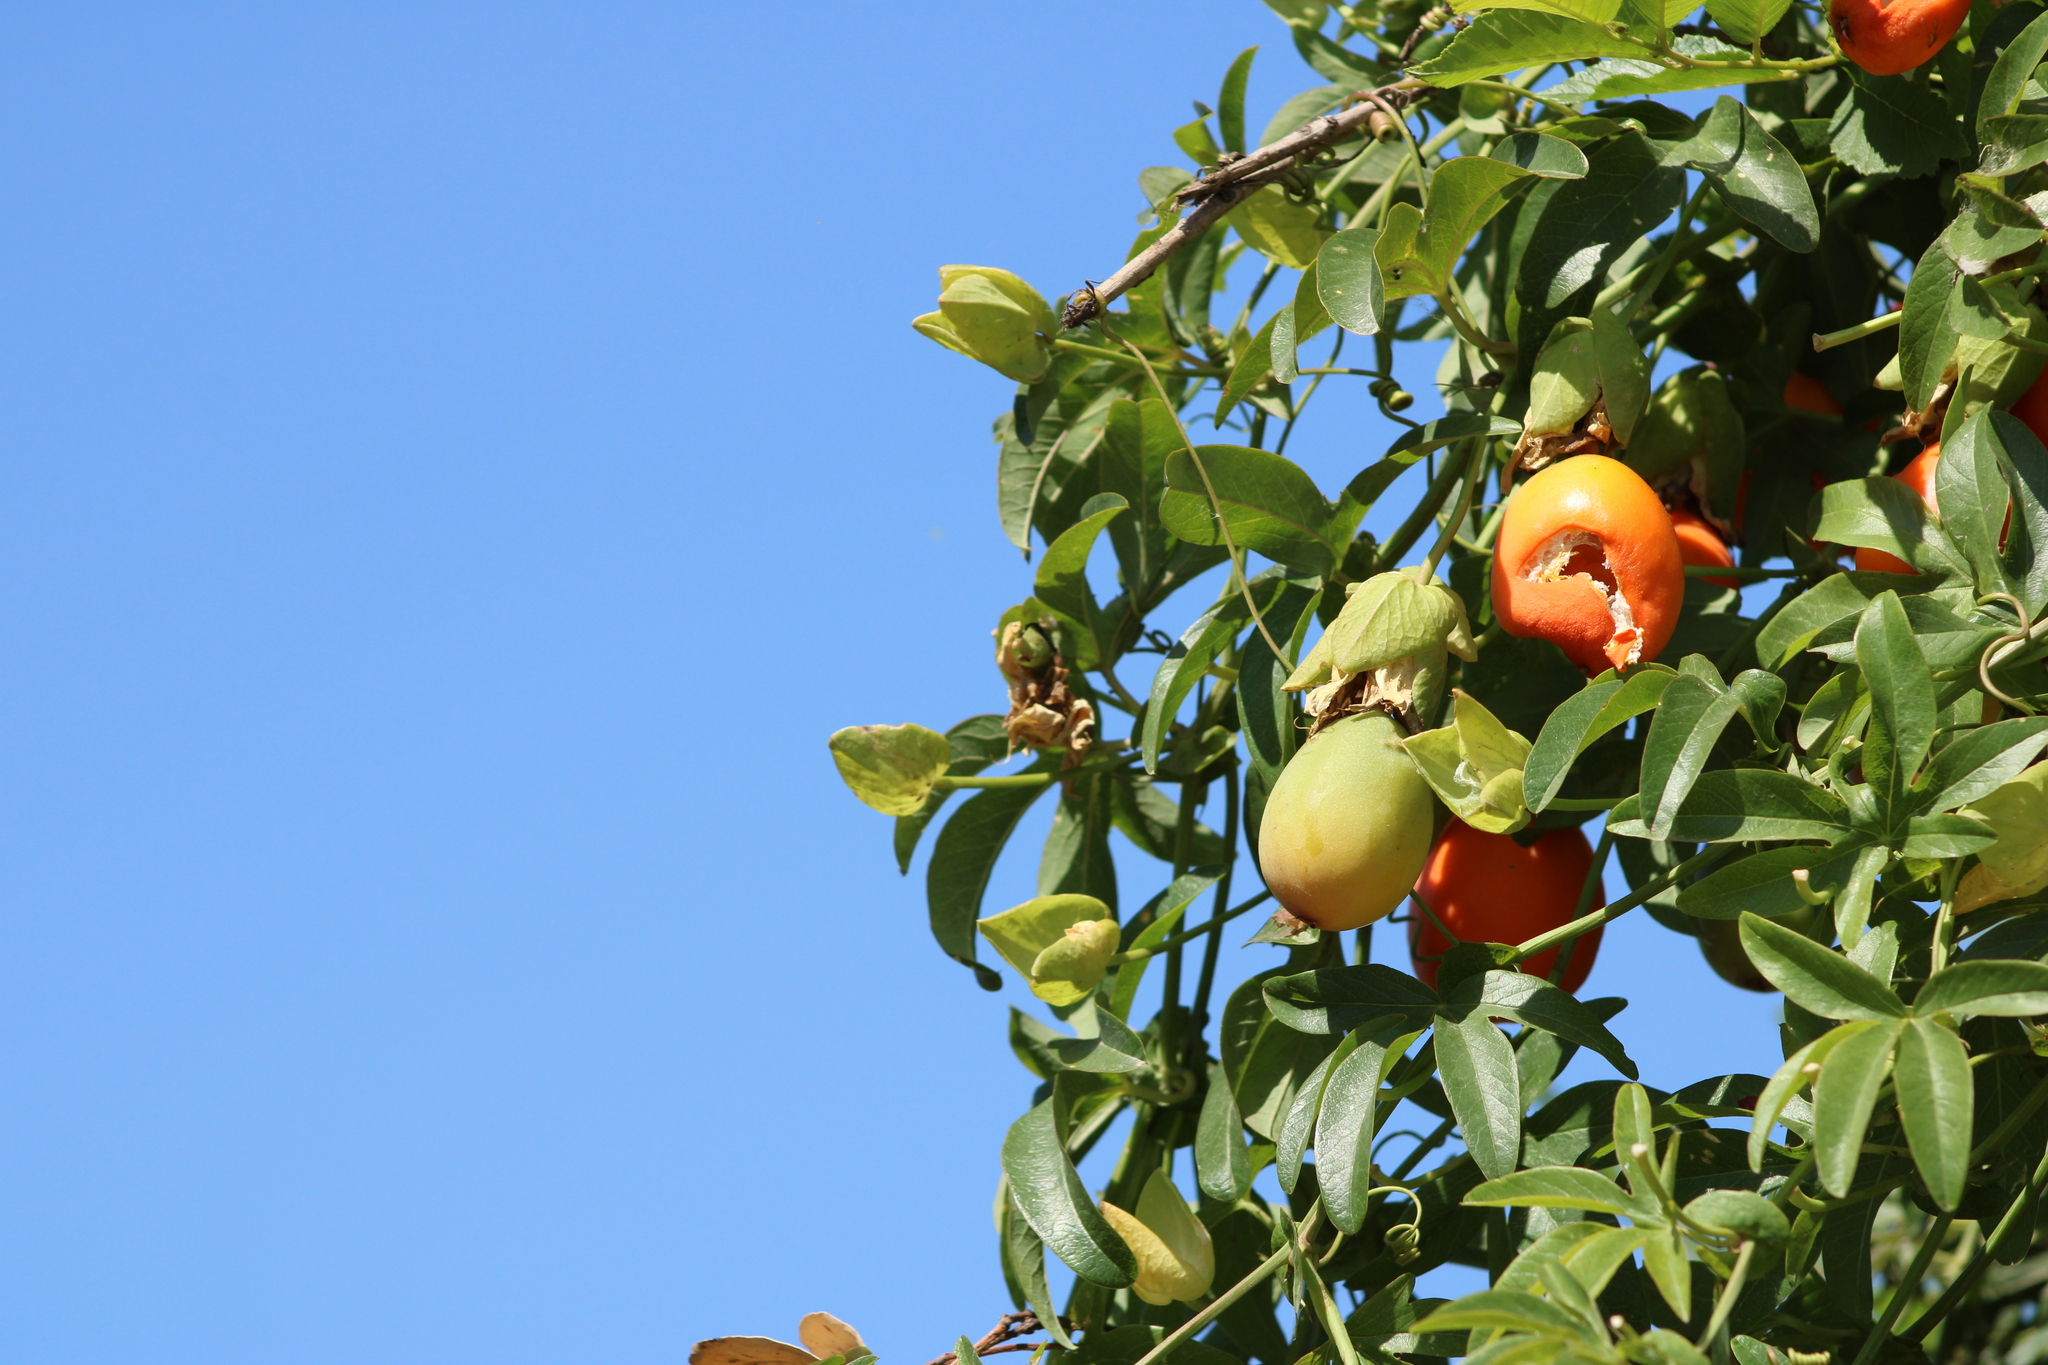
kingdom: Plantae
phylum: Tracheophyta
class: Magnoliopsida
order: Malpighiales
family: Passifloraceae
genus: Passiflora
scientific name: Passiflora caerulea
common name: Blue passionflower
